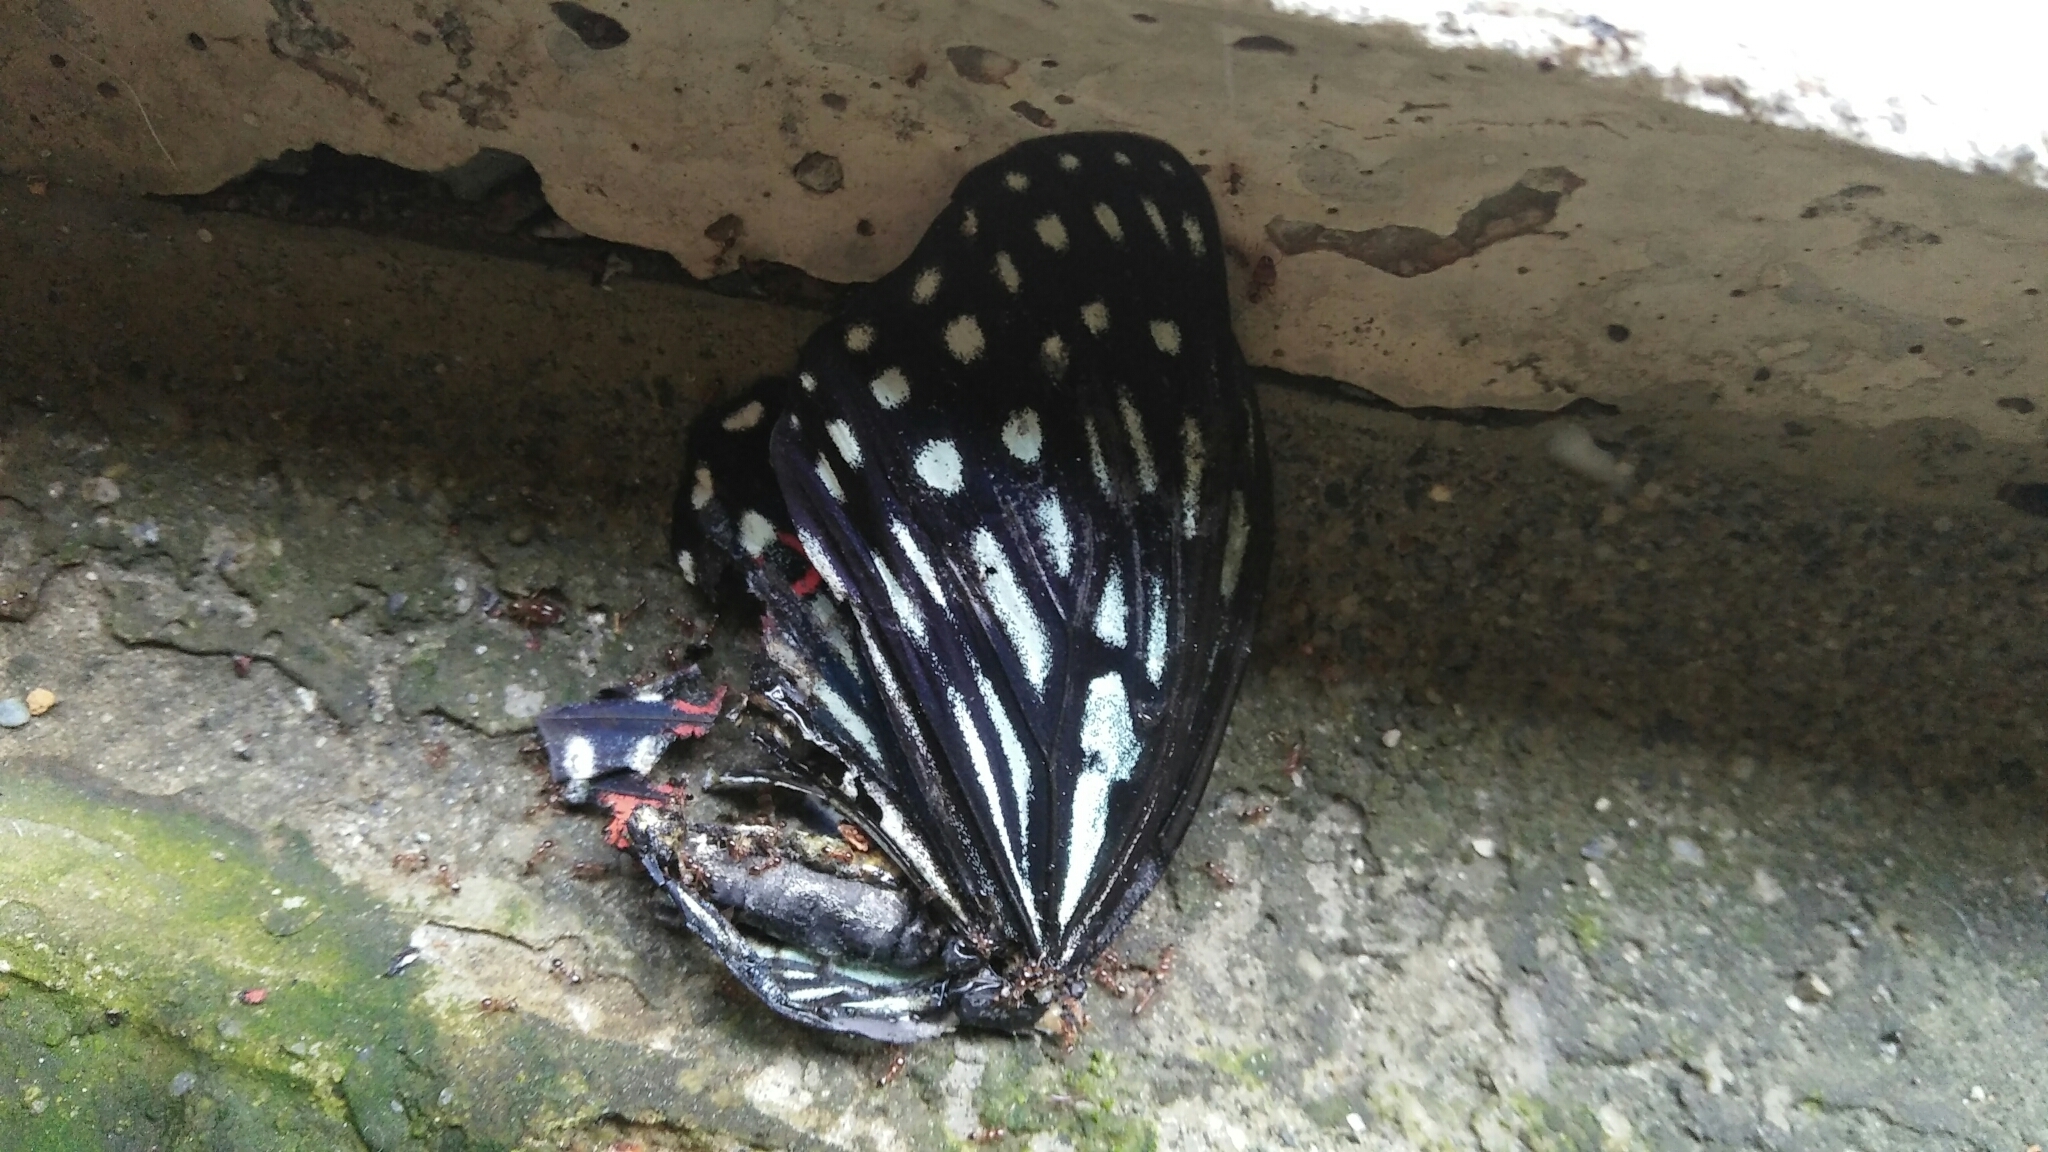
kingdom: Animalia
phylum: Arthropoda
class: Insecta
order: Lepidoptera
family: Nymphalidae
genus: Hestina
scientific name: Hestina assimilis
